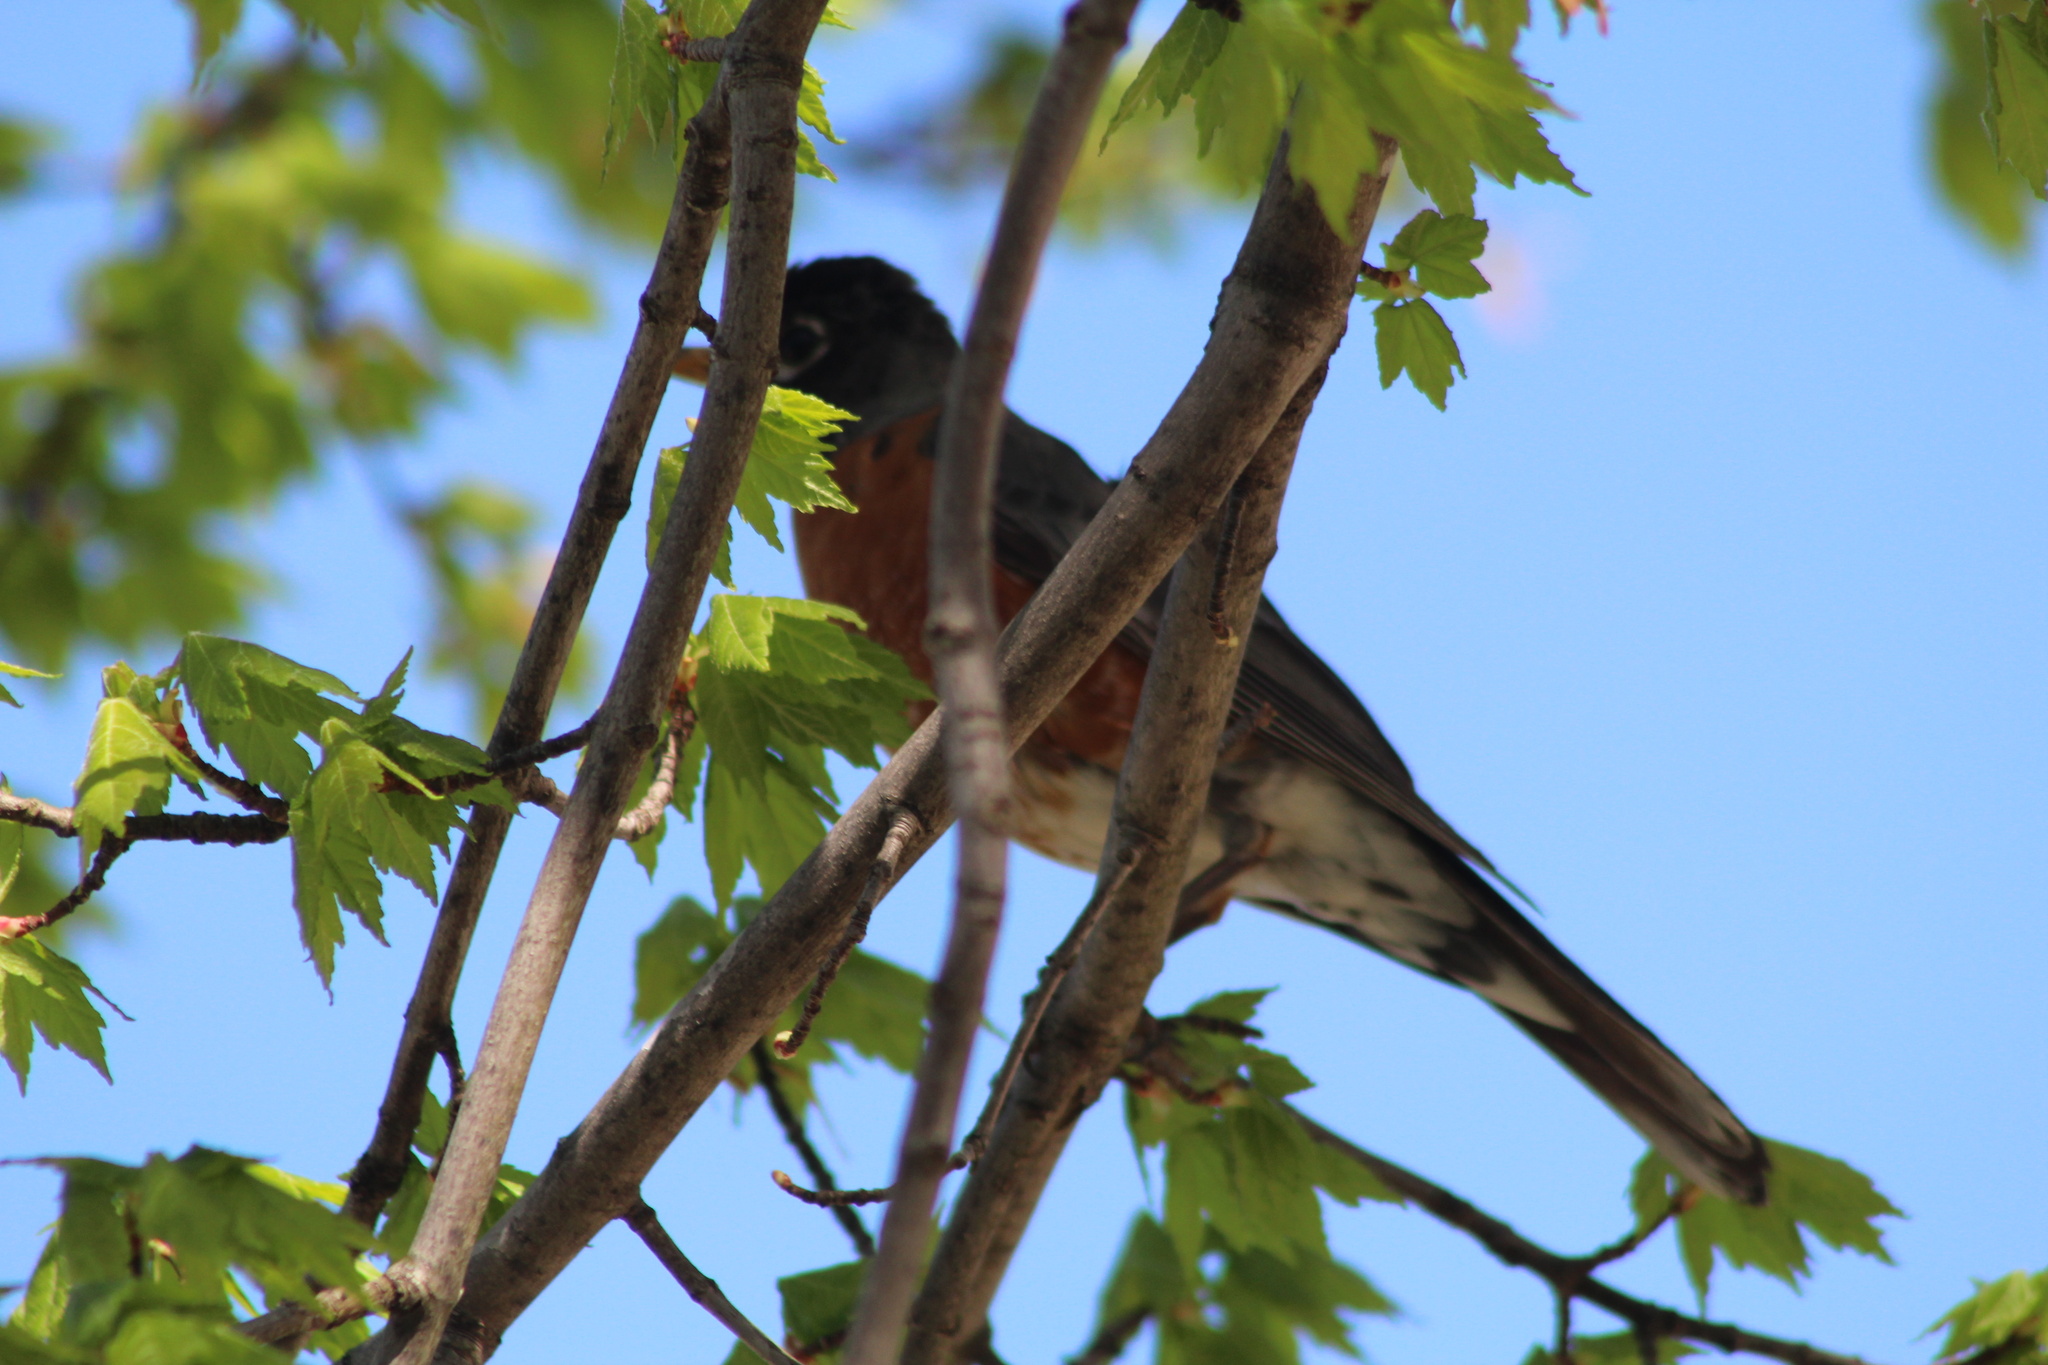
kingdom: Animalia
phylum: Chordata
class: Aves
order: Passeriformes
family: Turdidae
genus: Turdus
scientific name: Turdus migratorius
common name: American robin
